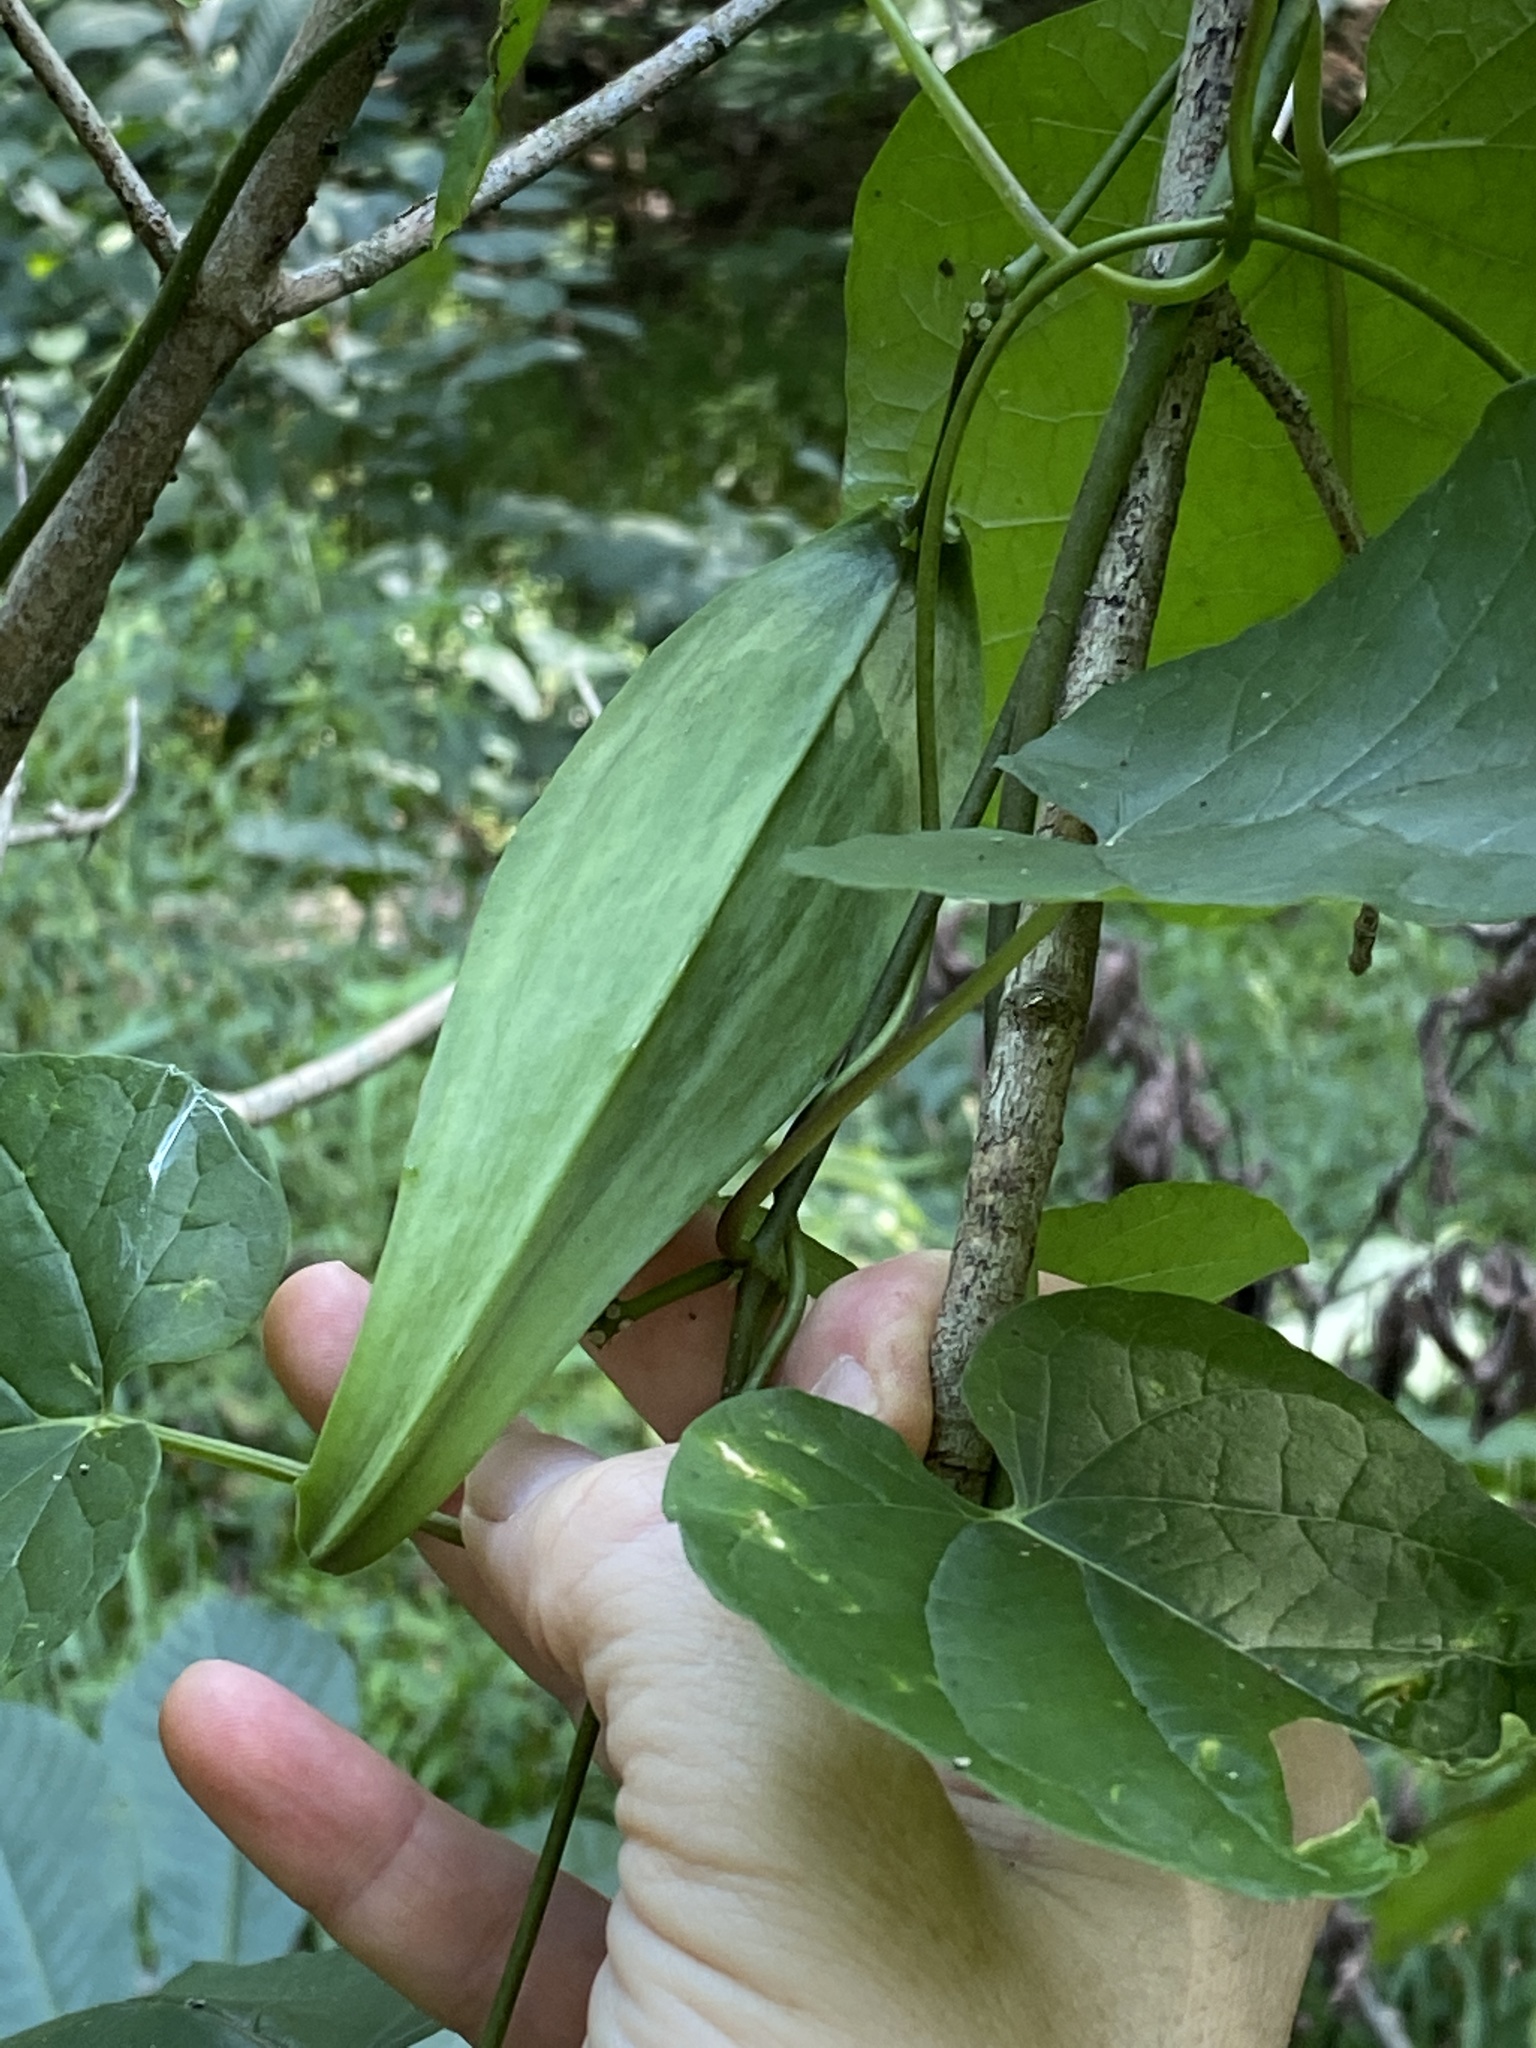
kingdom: Plantae
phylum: Tracheophyta
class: Magnoliopsida
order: Gentianales
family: Apocynaceae
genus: Gonolobus
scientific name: Gonolobus suberosus
